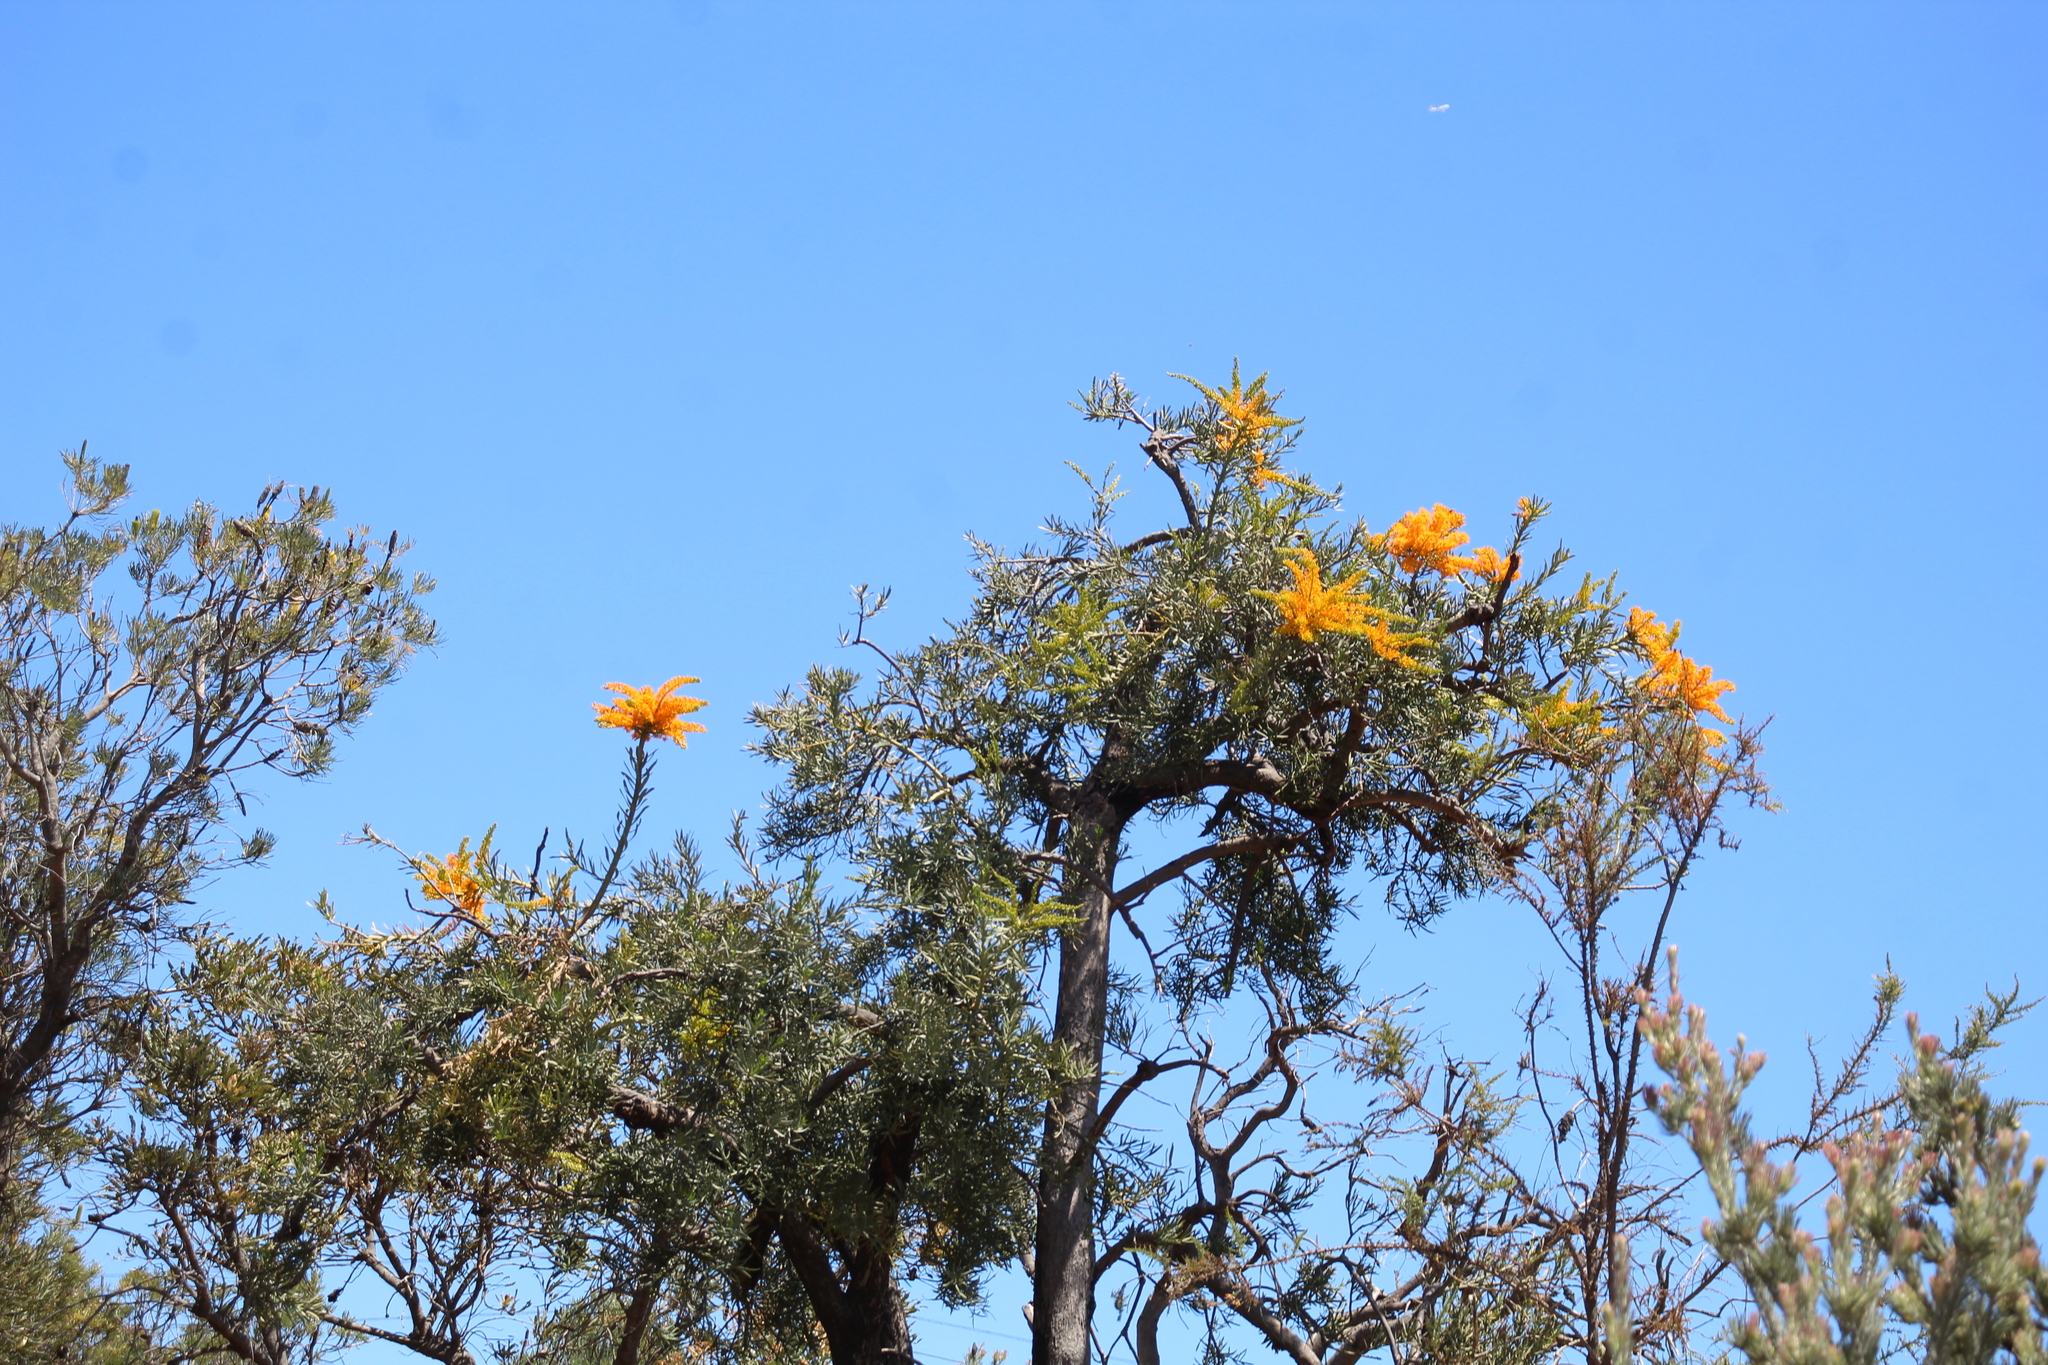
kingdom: Plantae
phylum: Tracheophyta
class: Magnoliopsida
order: Santalales
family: Loranthaceae
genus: Nuytsia
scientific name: Nuytsia floribunda
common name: Western australian christmastree
